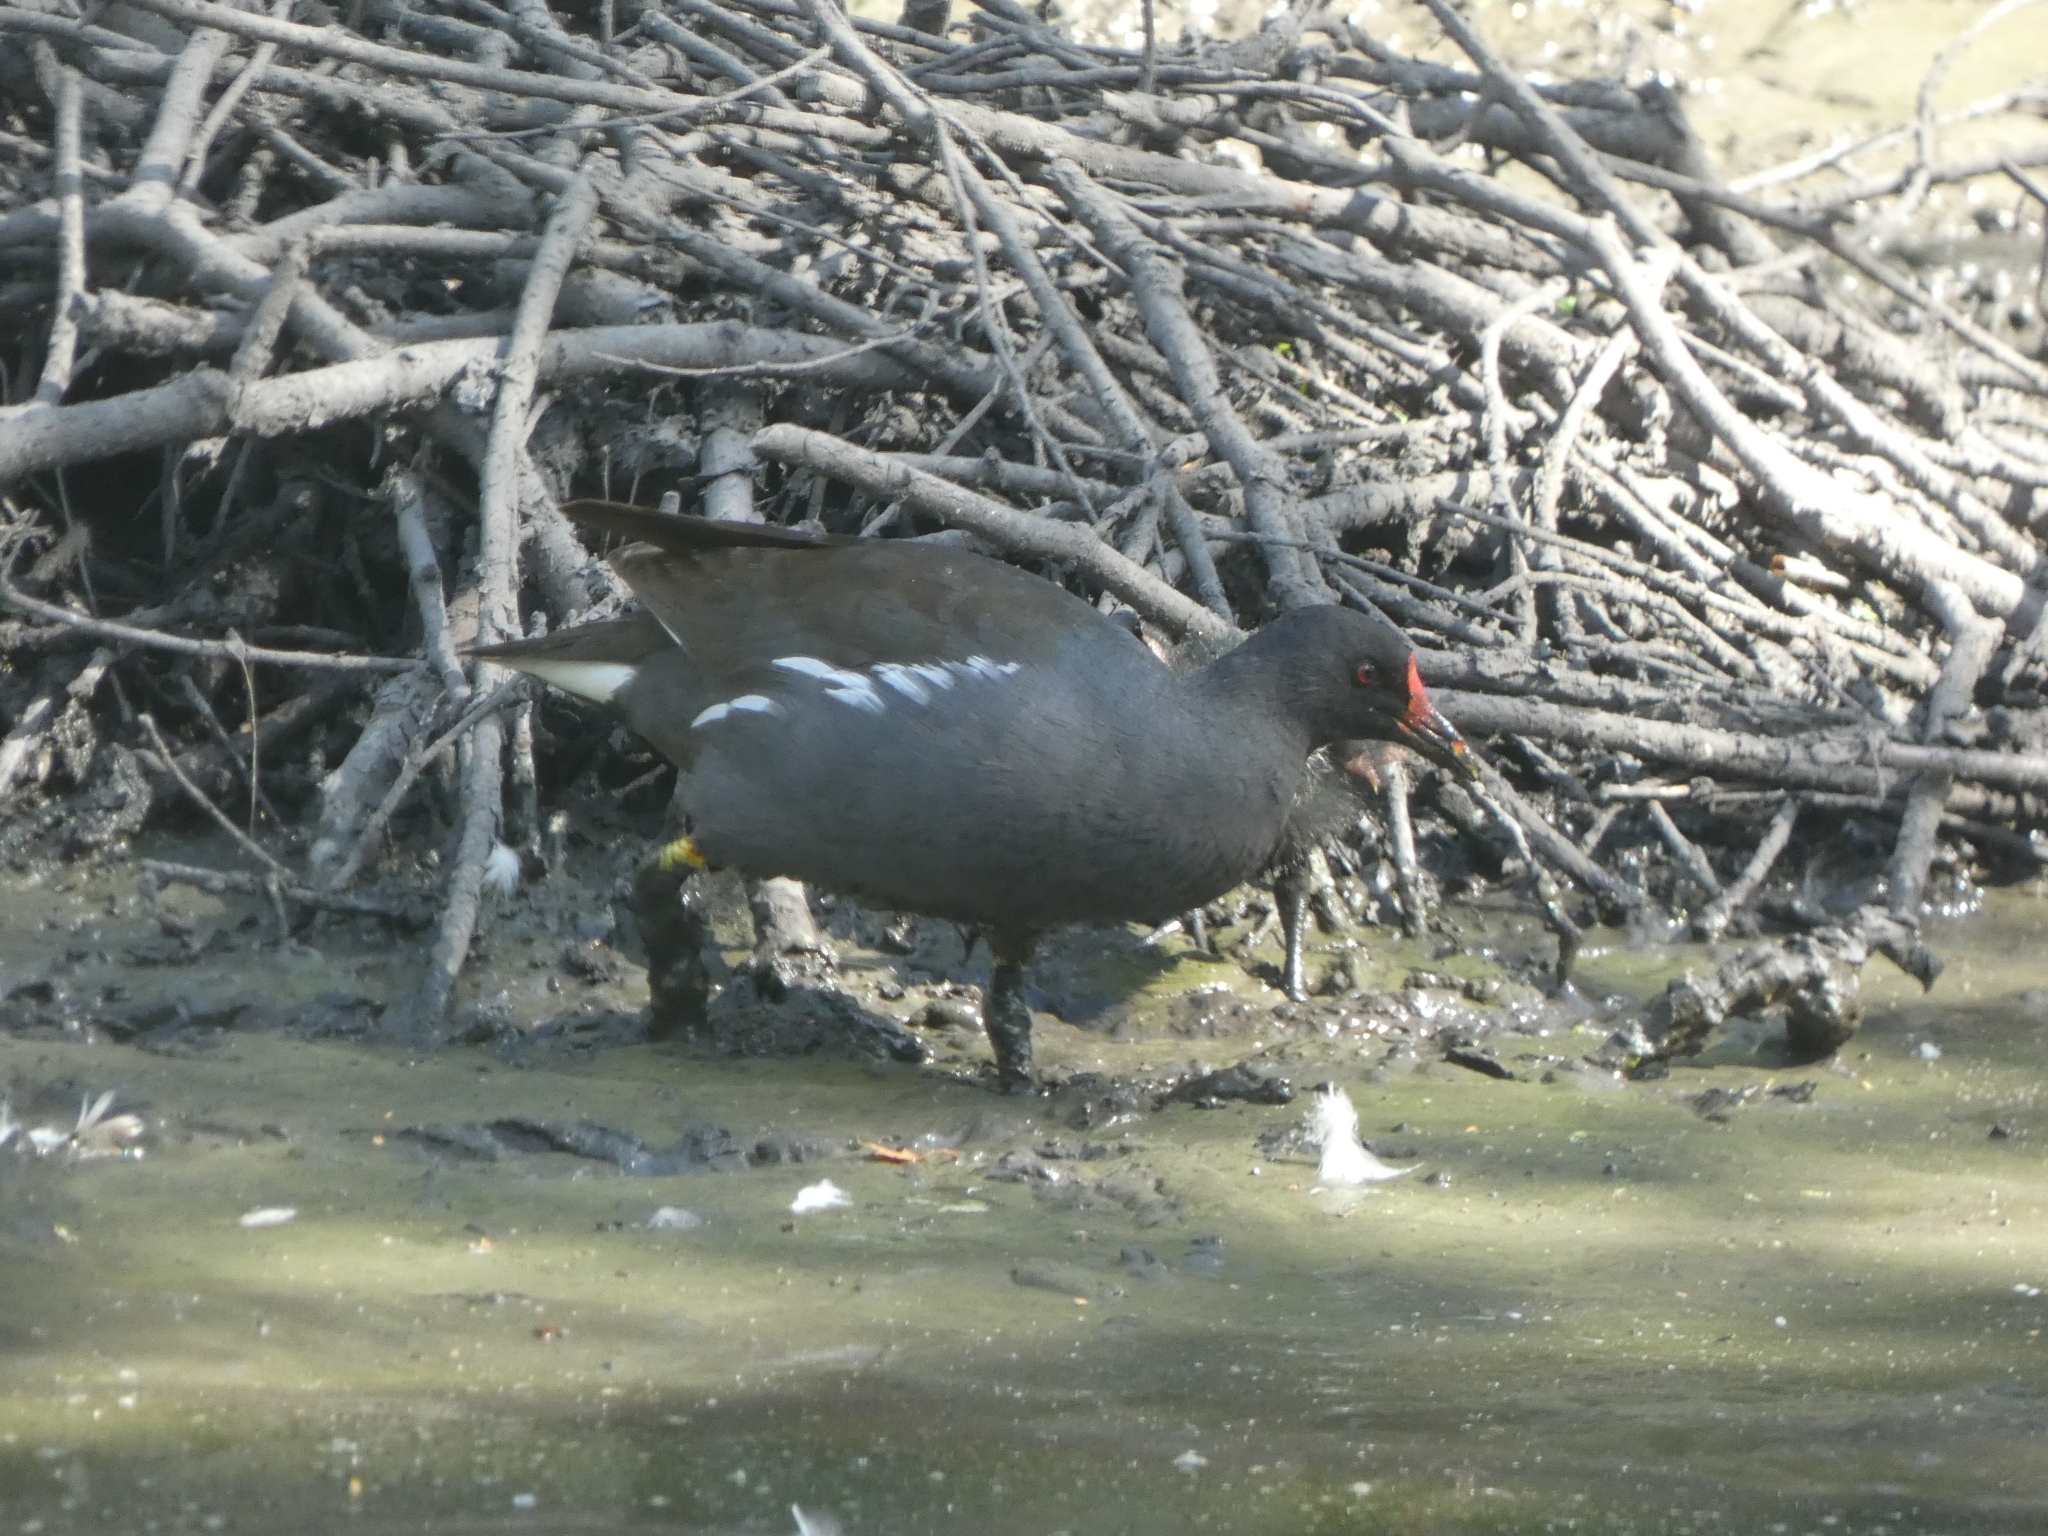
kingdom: Animalia
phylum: Chordata
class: Aves
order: Gruiformes
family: Rallidae
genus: Gallinula
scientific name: Gallinula chloropus
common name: Common moorhen
